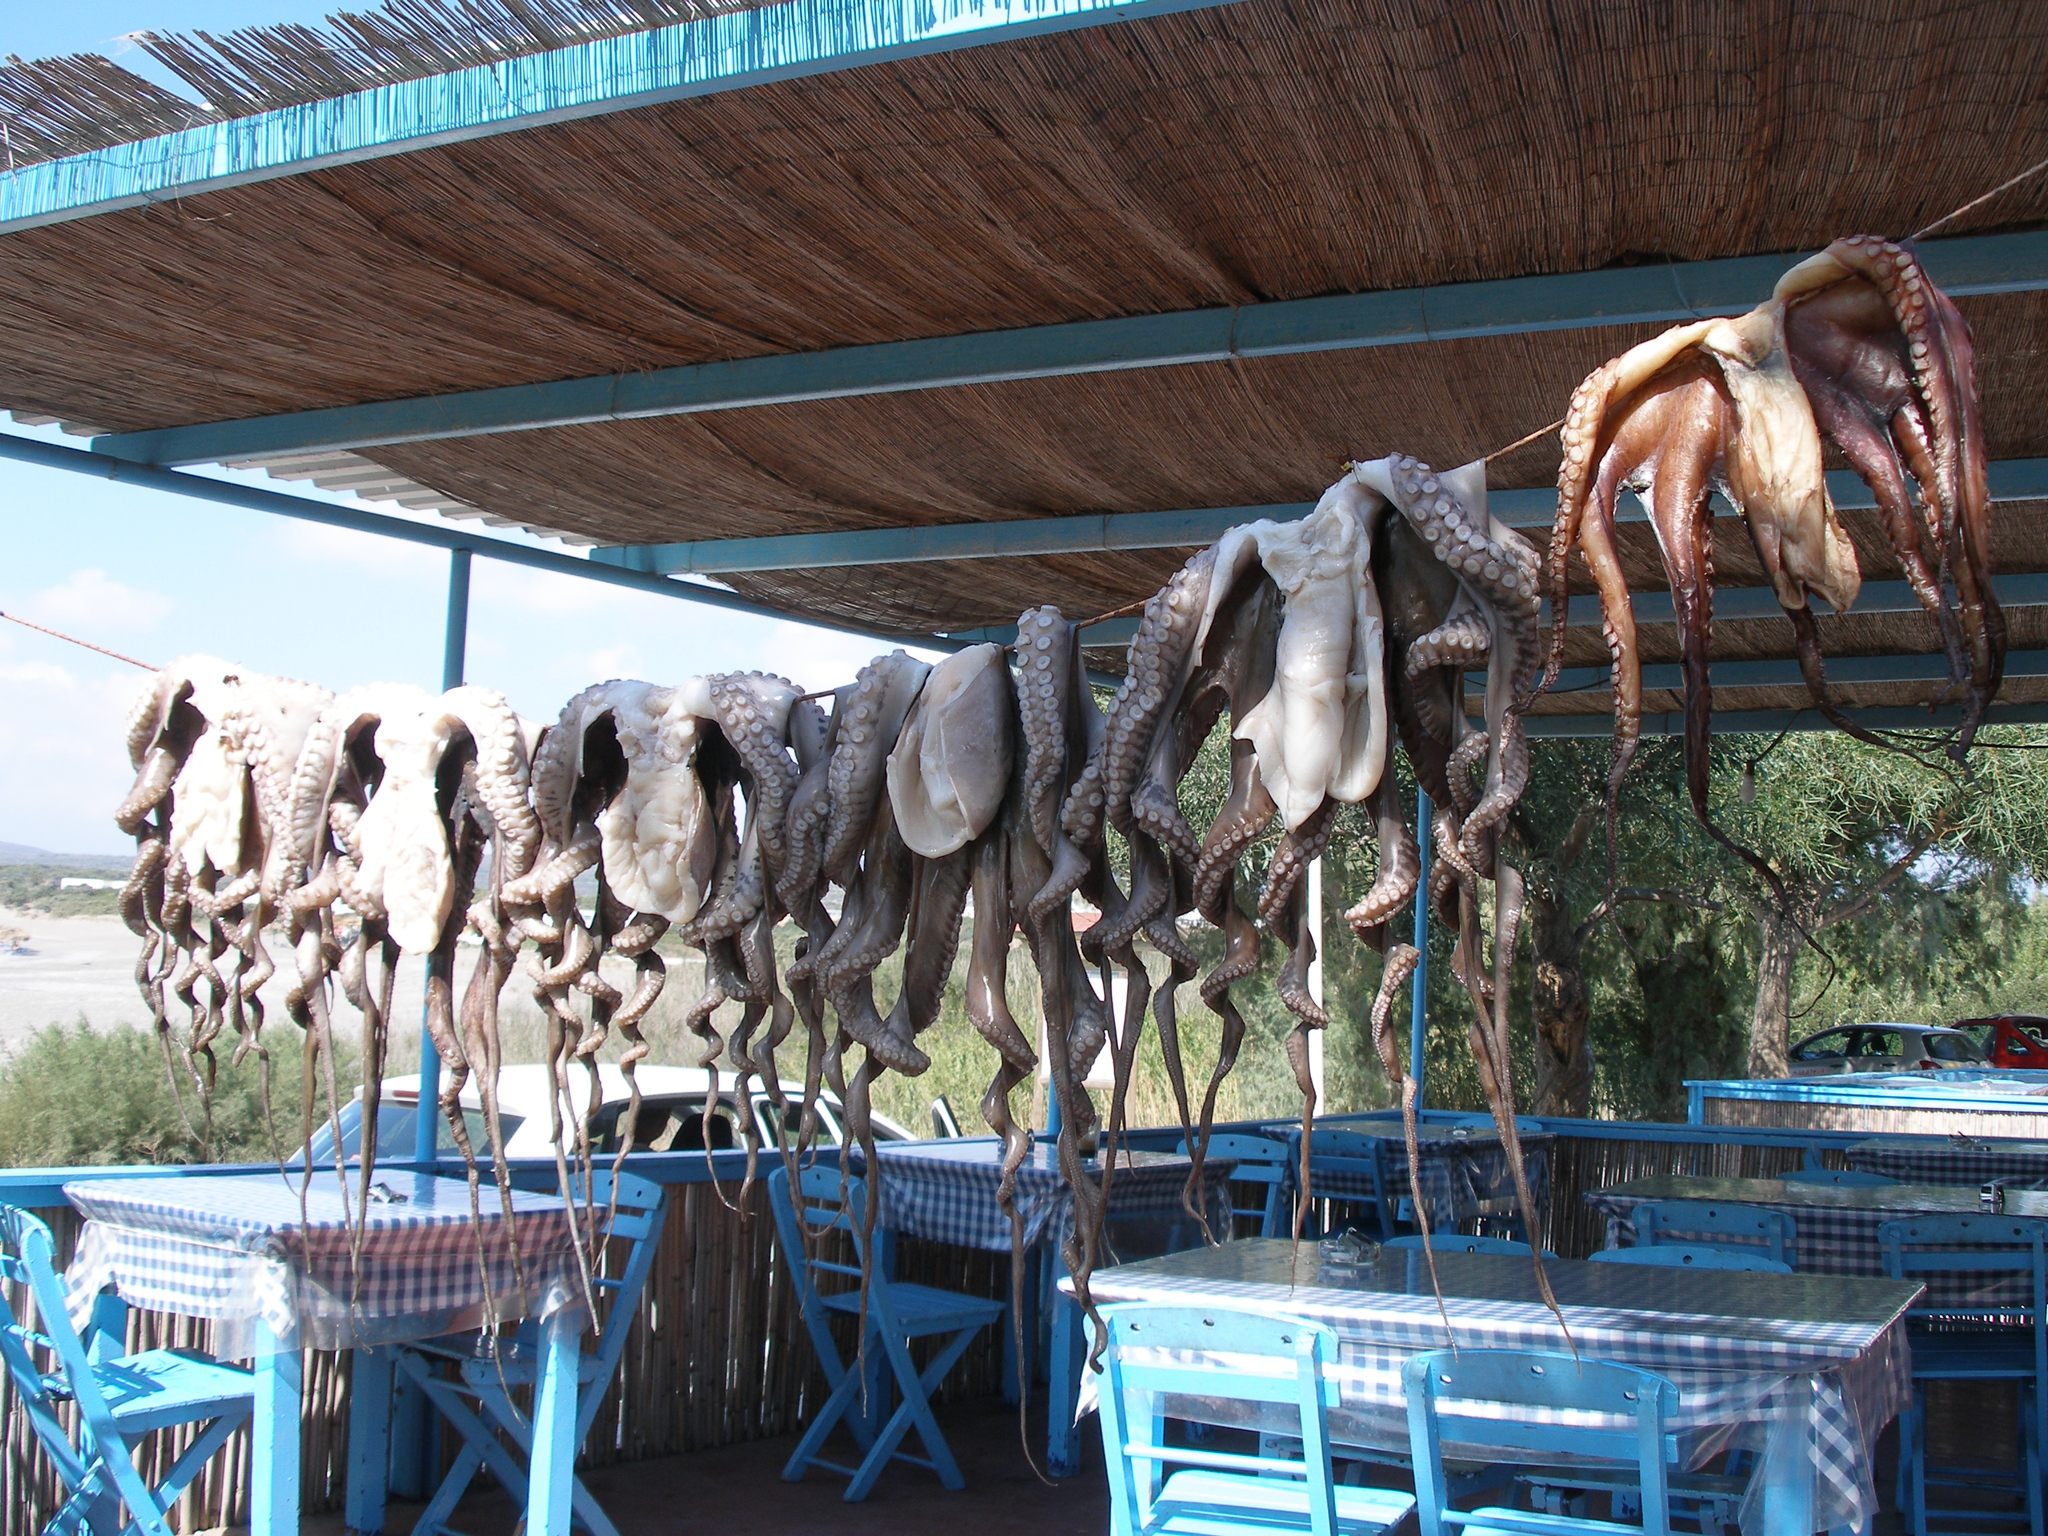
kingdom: Animalia
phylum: Mollusca
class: Cephalopoda
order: Octopoda
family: Octopodidae
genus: Octopus
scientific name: Octopus vulgaris
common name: Common octopus
